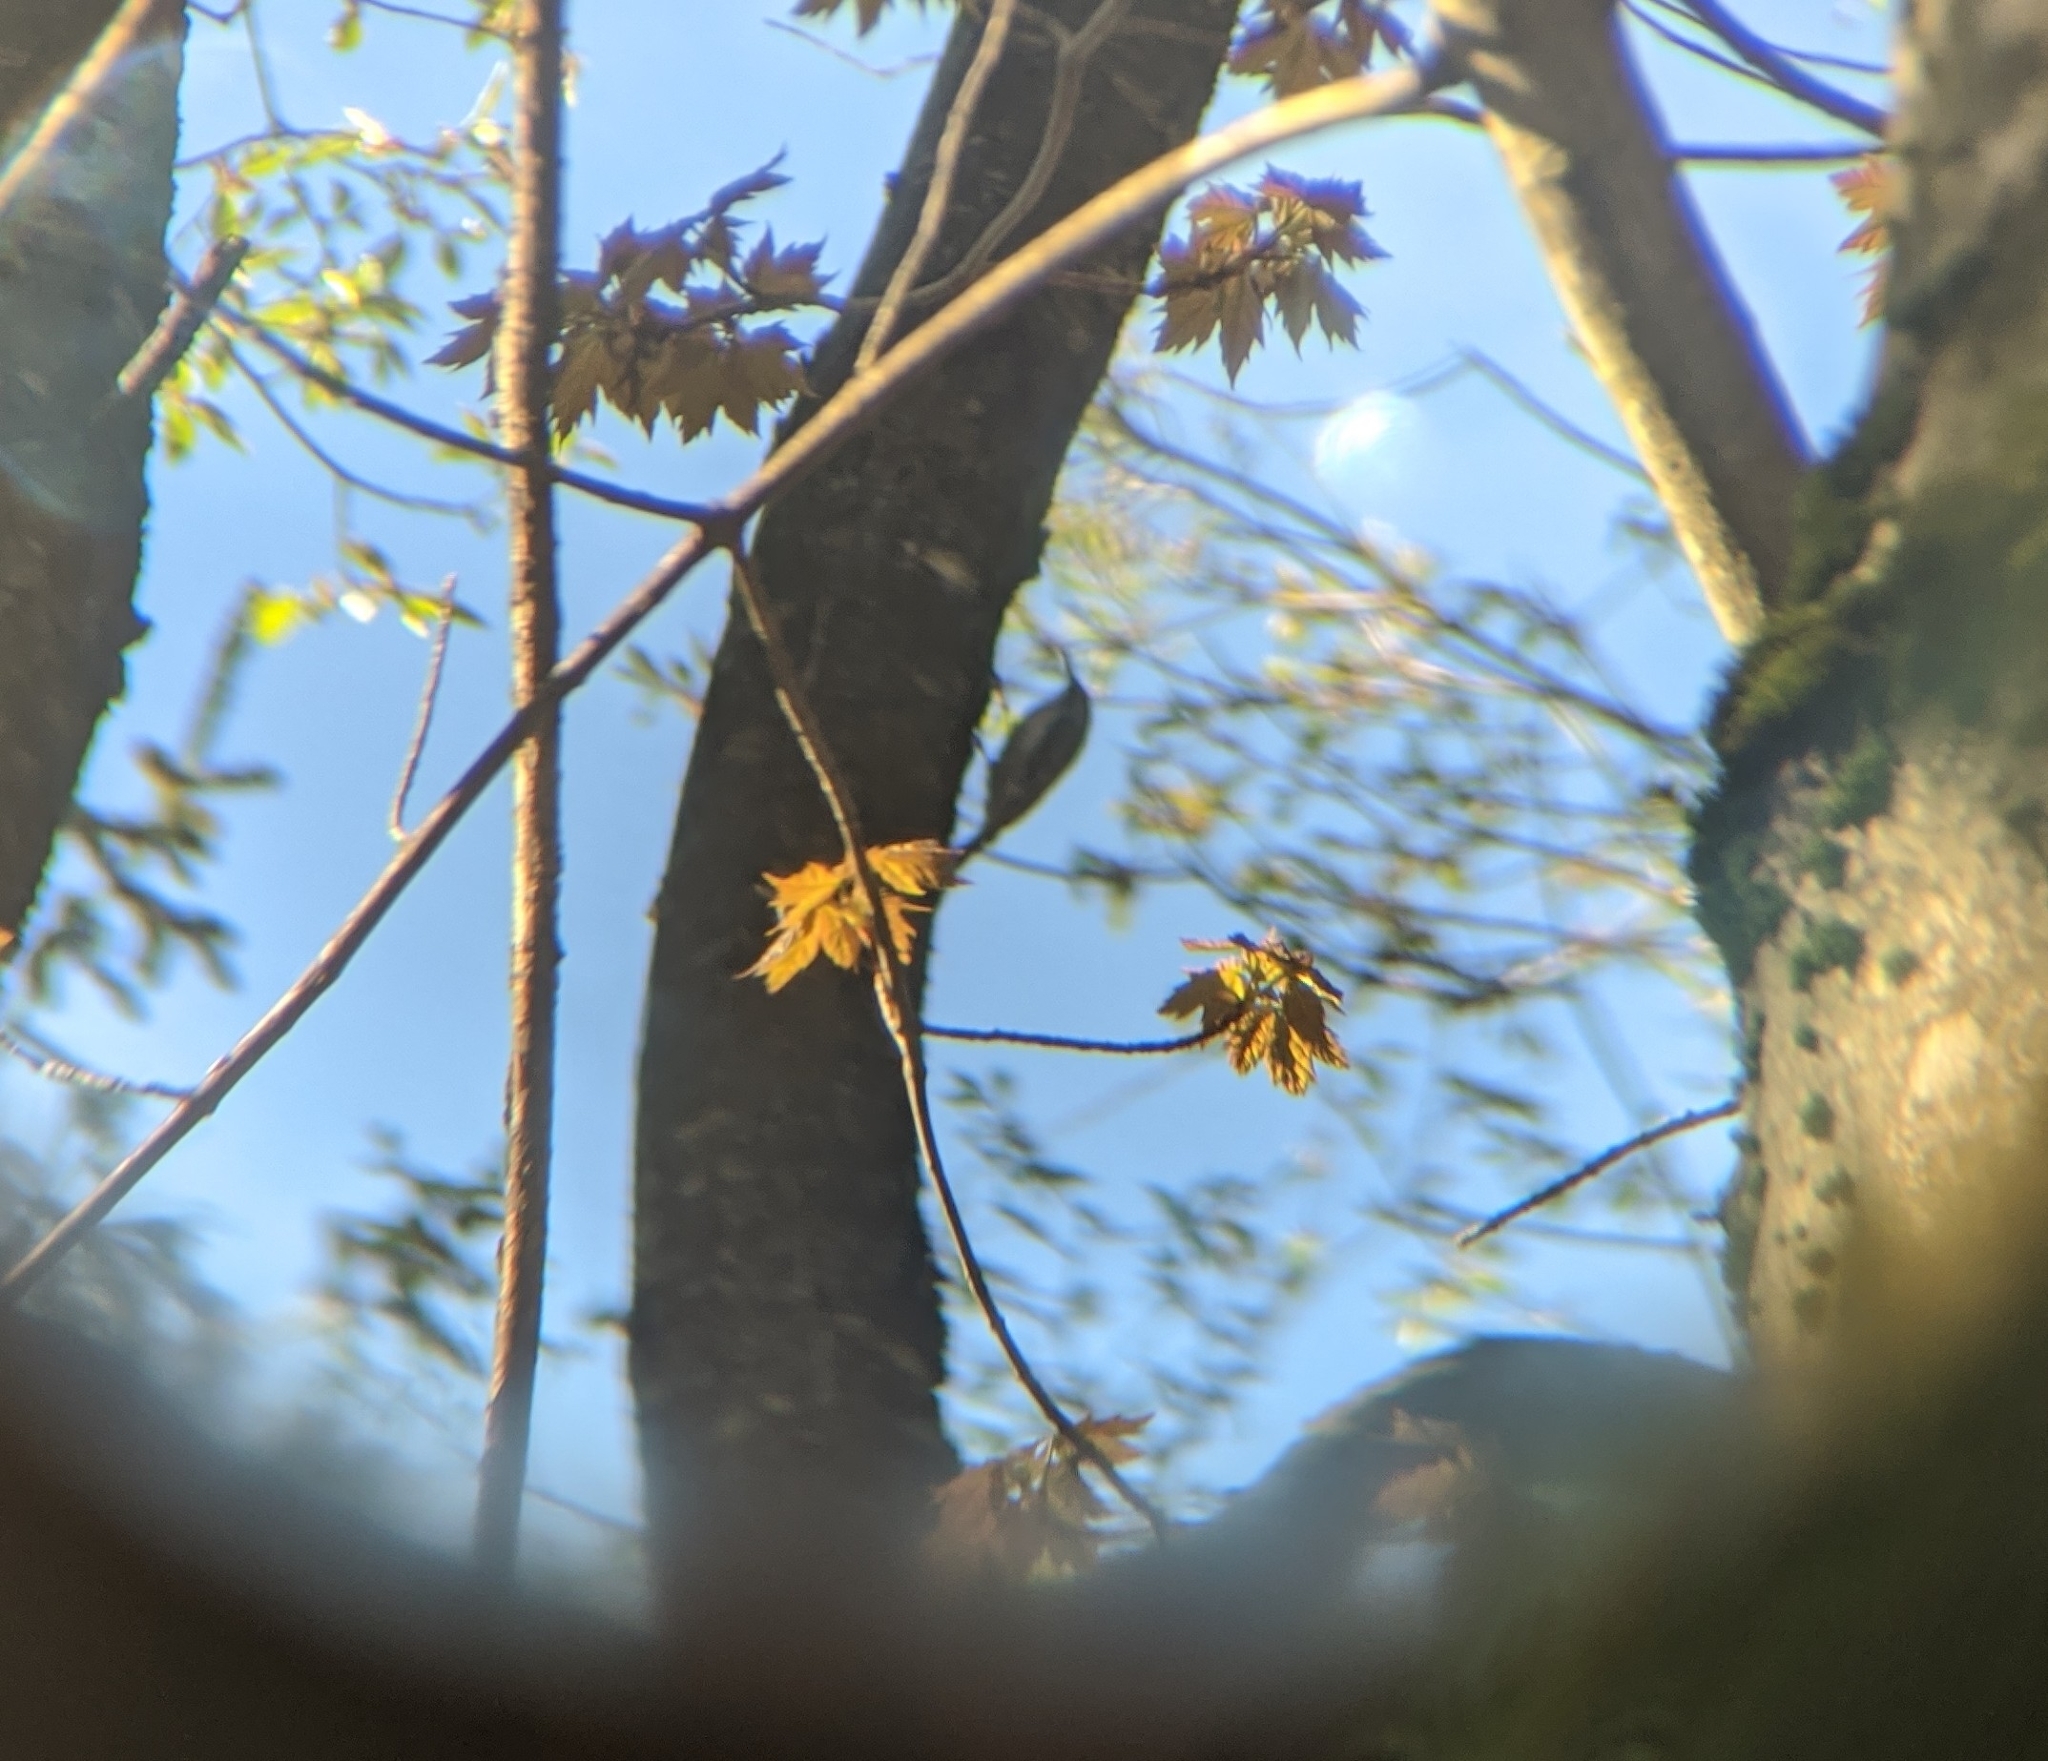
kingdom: Animalia
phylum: Chordata
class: Aves
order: Passeriformes
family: Certhiidae
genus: Certhia
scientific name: Certhia americana
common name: Brown creeper
